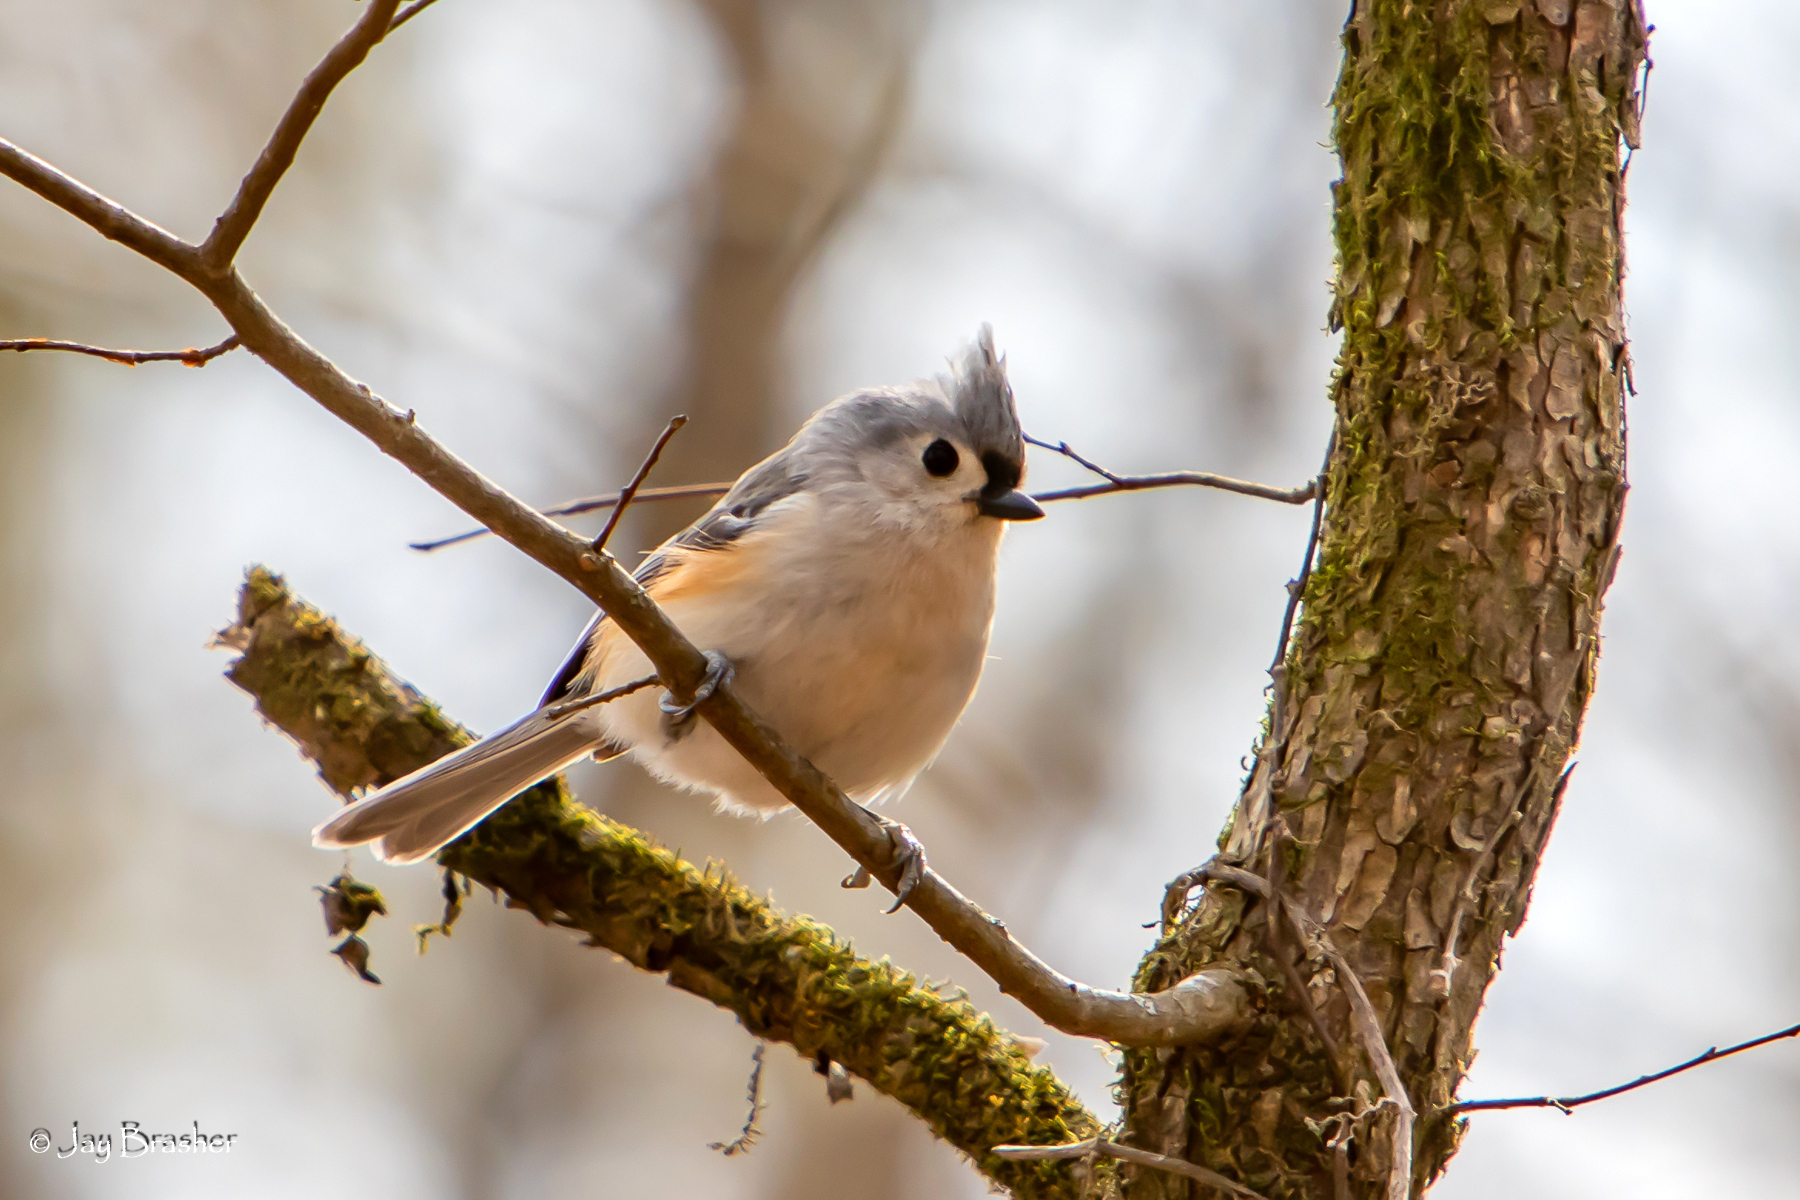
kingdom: Animalia
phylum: Chordata
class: Aves
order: Passeriformes
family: Paridae
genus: Baeolophus
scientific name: Baeolophus bicolor
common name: Tufted titmouse
